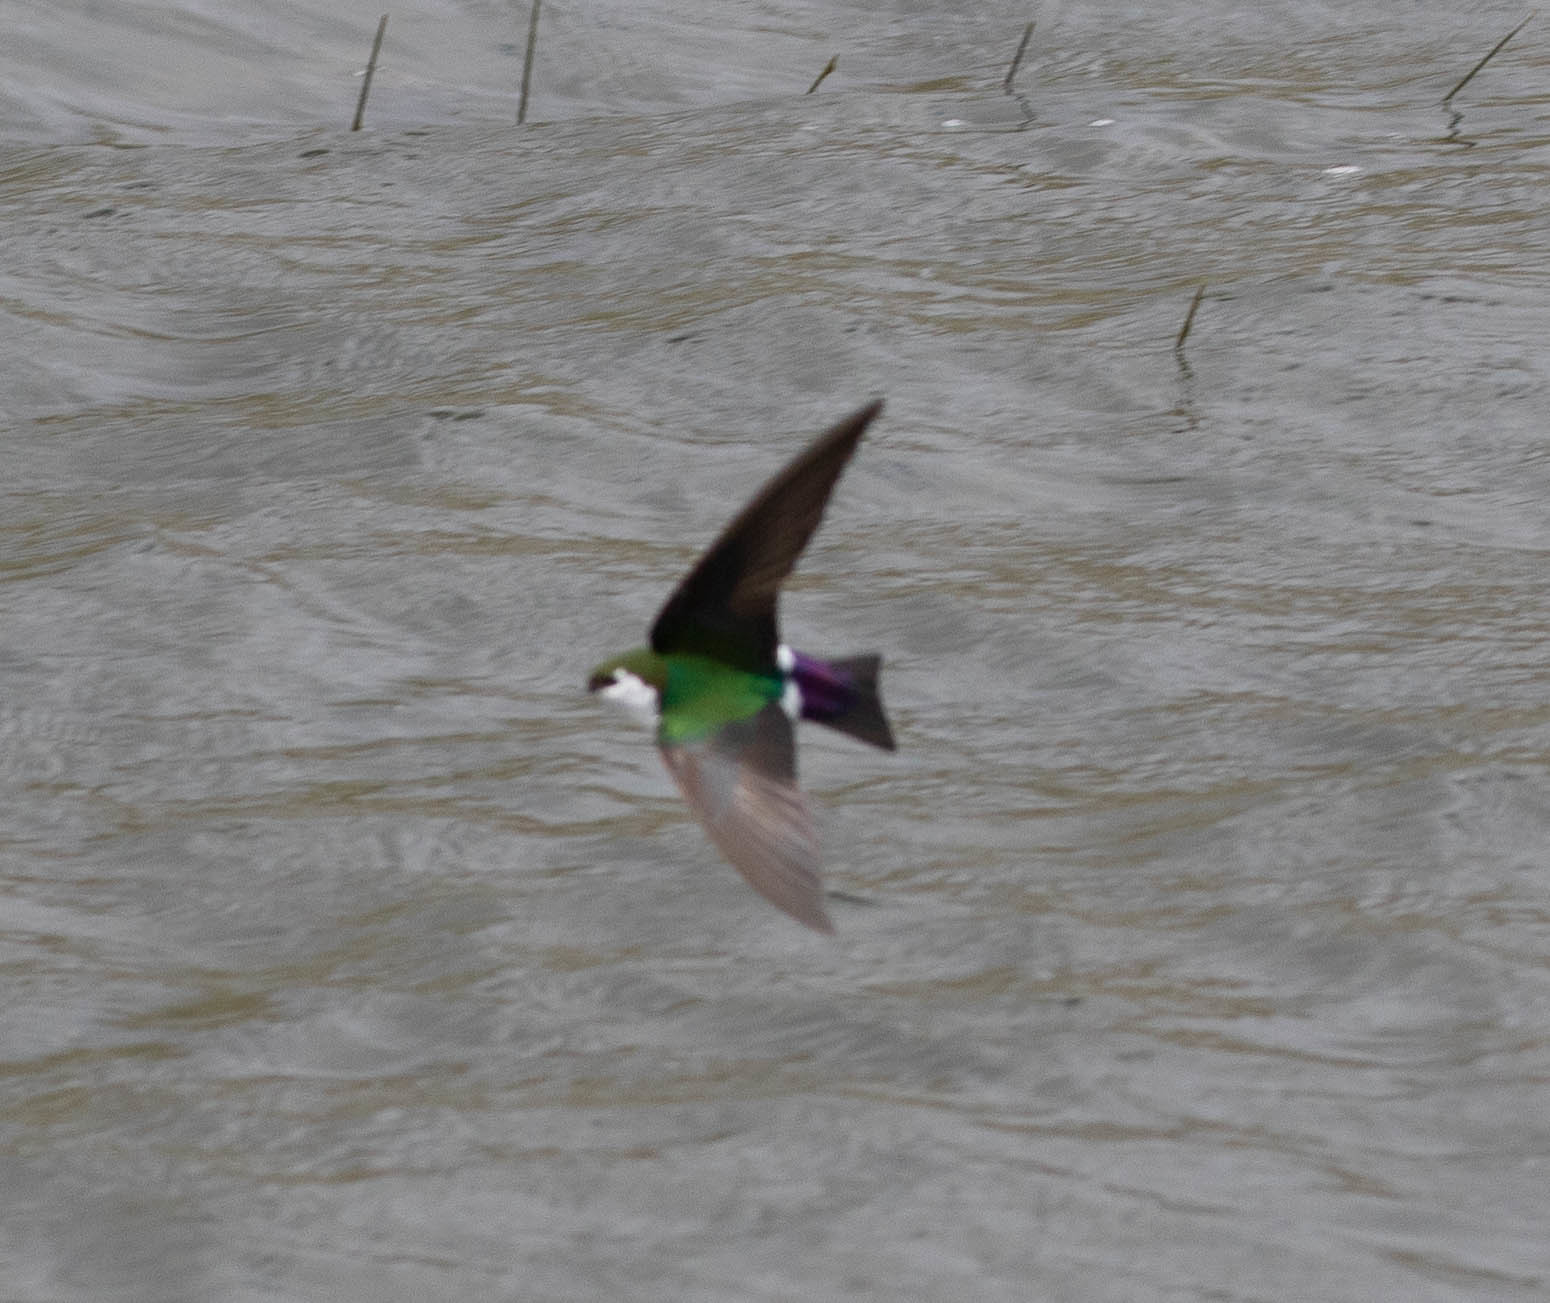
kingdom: Animalia
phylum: Chordata
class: Aves
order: Passeriformes
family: Hirundinidae
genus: Tachycineta
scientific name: Tachycineta thalassina
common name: Violet-green swallow
